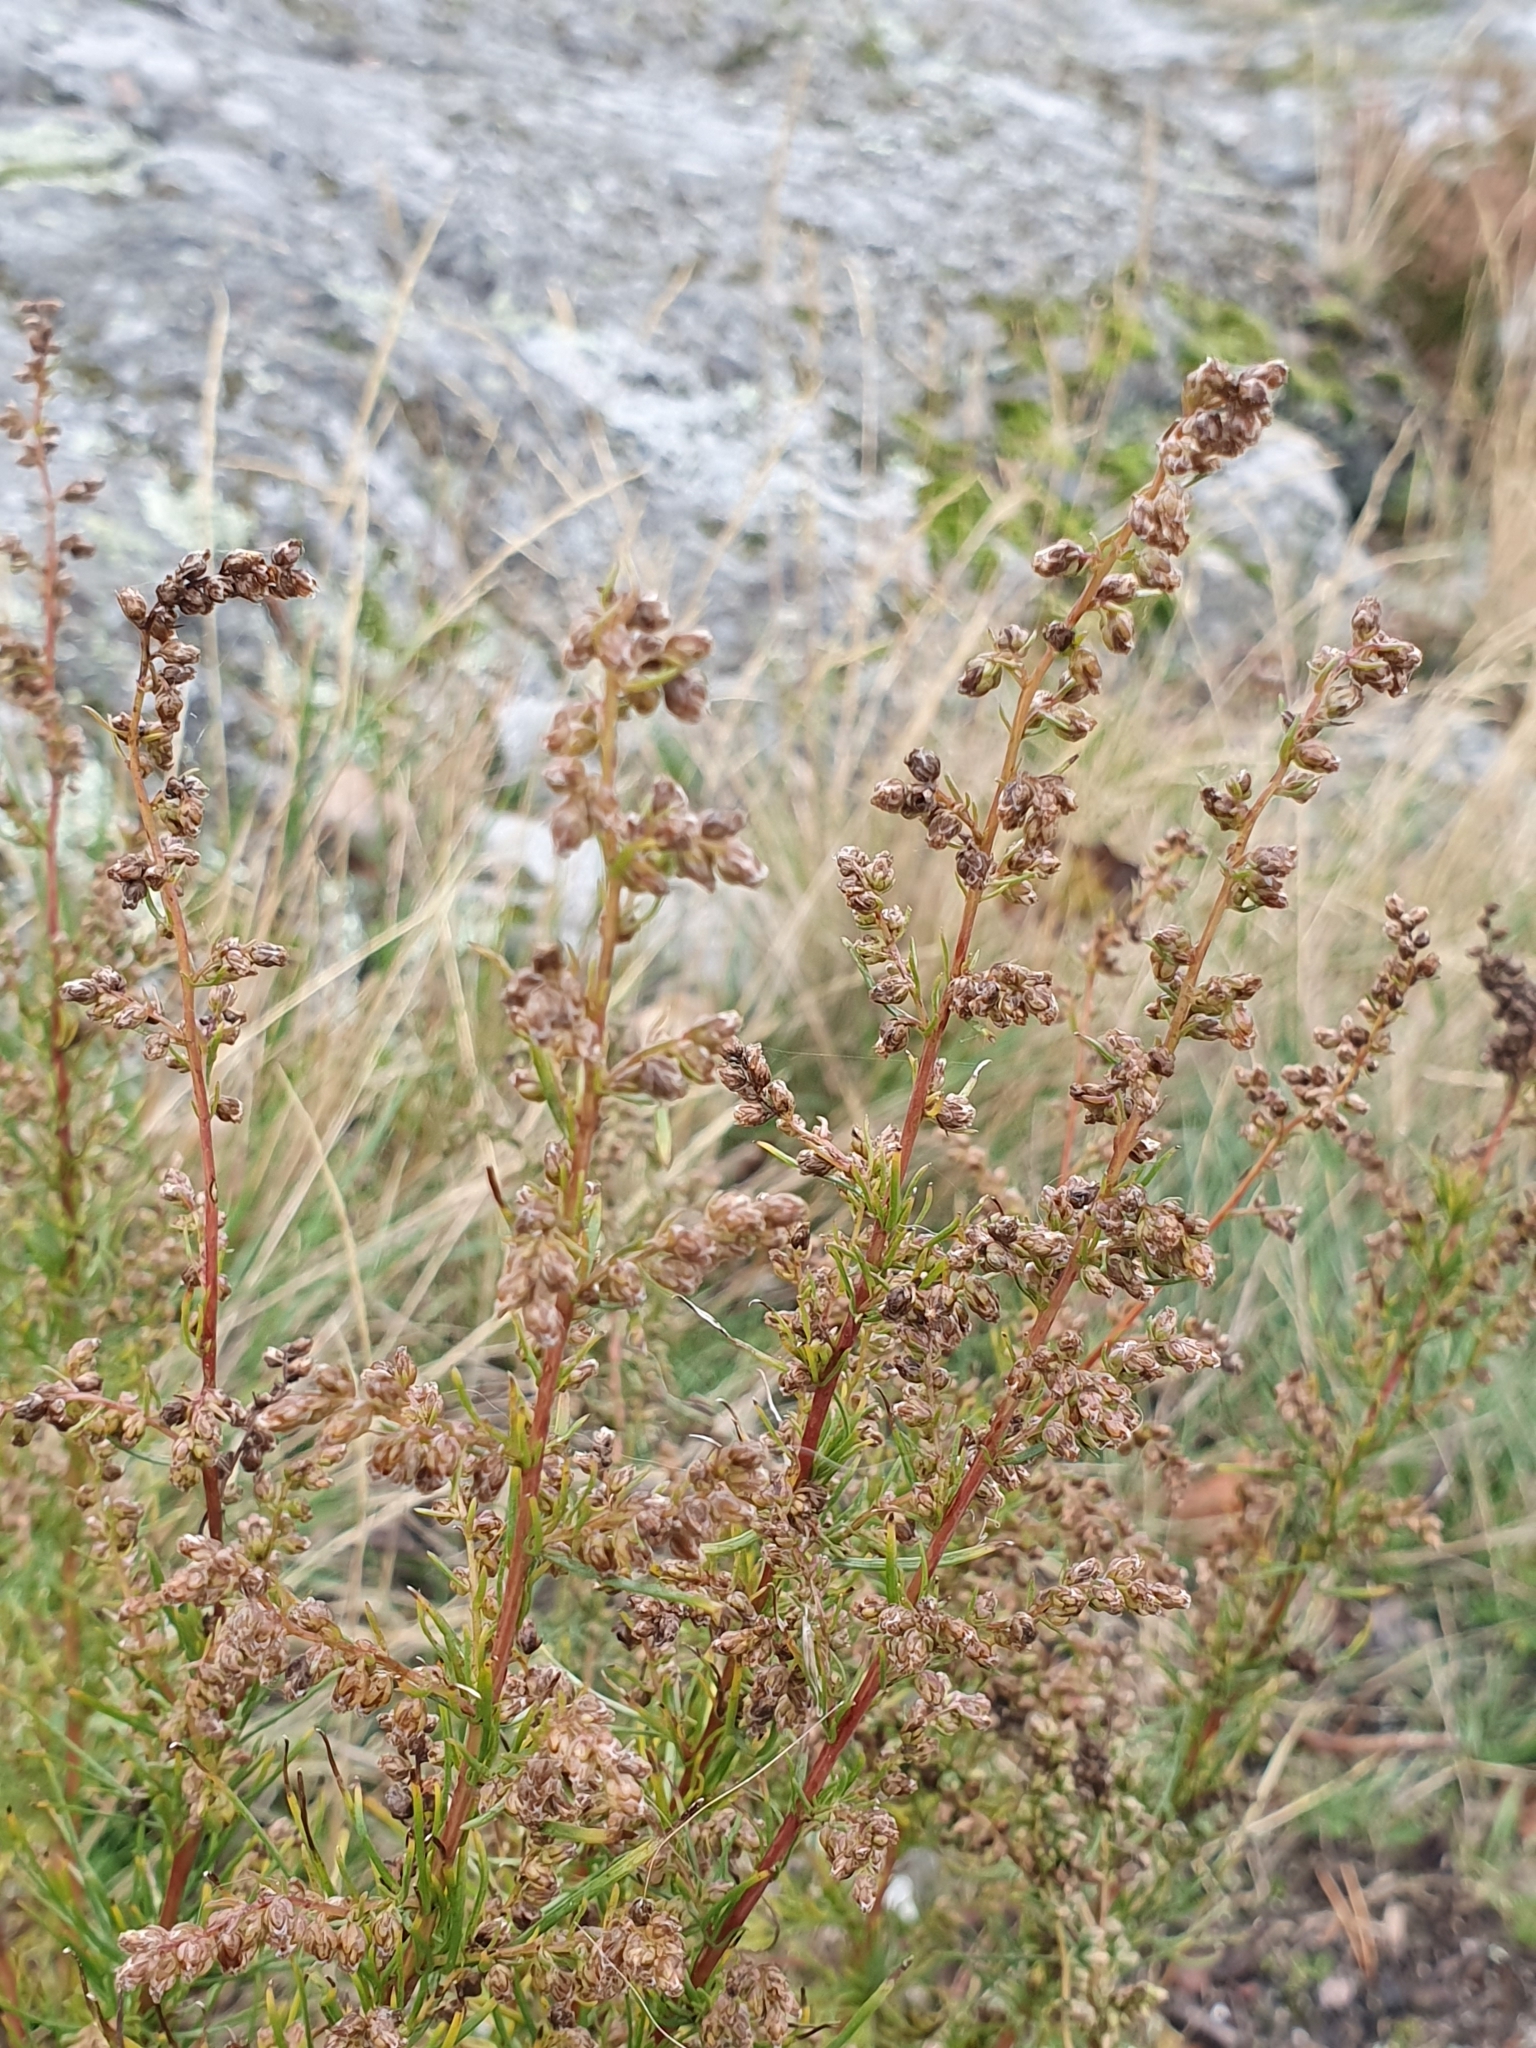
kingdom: Plantae
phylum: Tracheophyta
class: Magnoliopsida
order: Asterales
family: Asteraceae
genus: Artemisia
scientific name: Artemisia campestris
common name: Field wormwood
